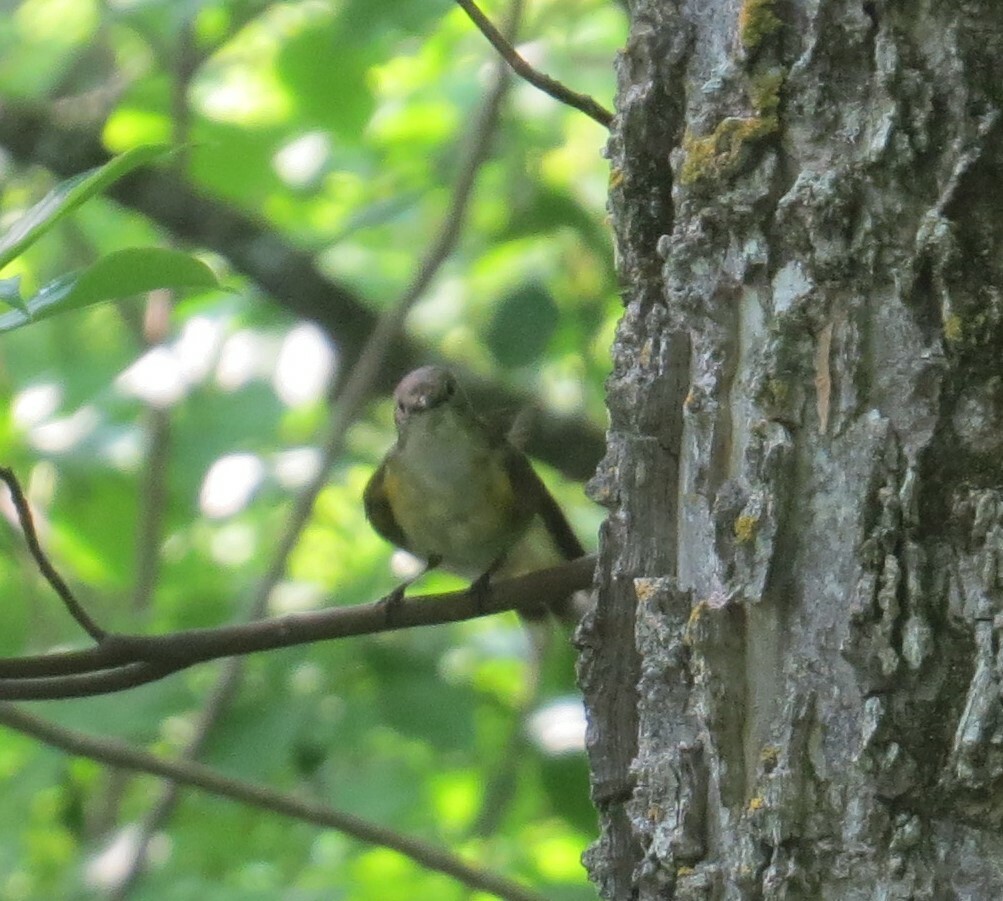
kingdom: Animalia
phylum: Chordata
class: Aves
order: Passeriformes
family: Parulidae
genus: Setophaga
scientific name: Setophaga ruticilla
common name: American redstart
